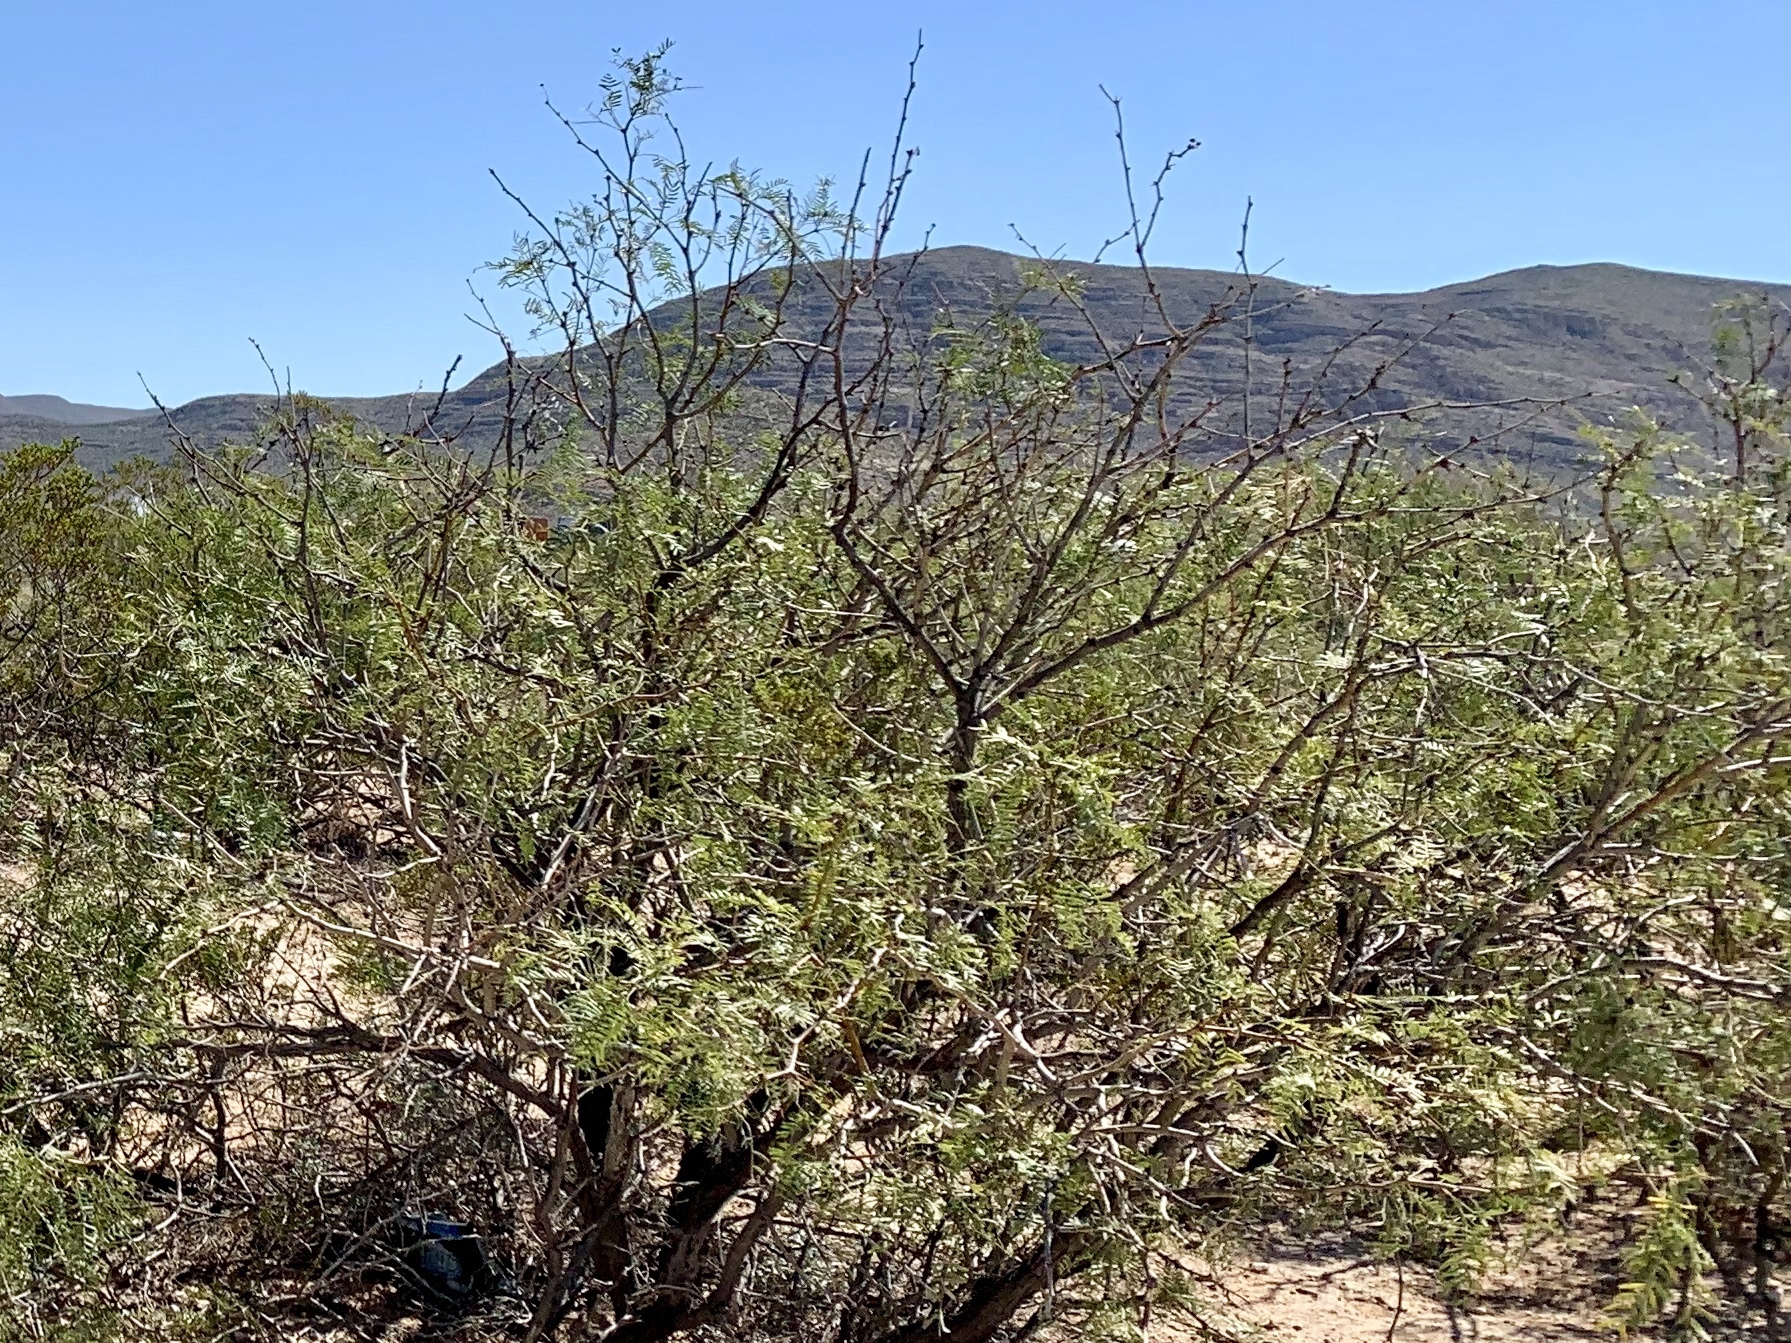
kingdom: Plantae
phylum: Tracheophyta
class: Magnoliopsida
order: Fabales
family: Fabaceae
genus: Prosopis
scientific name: Prosopis glandulosa
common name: Honey mesquite
